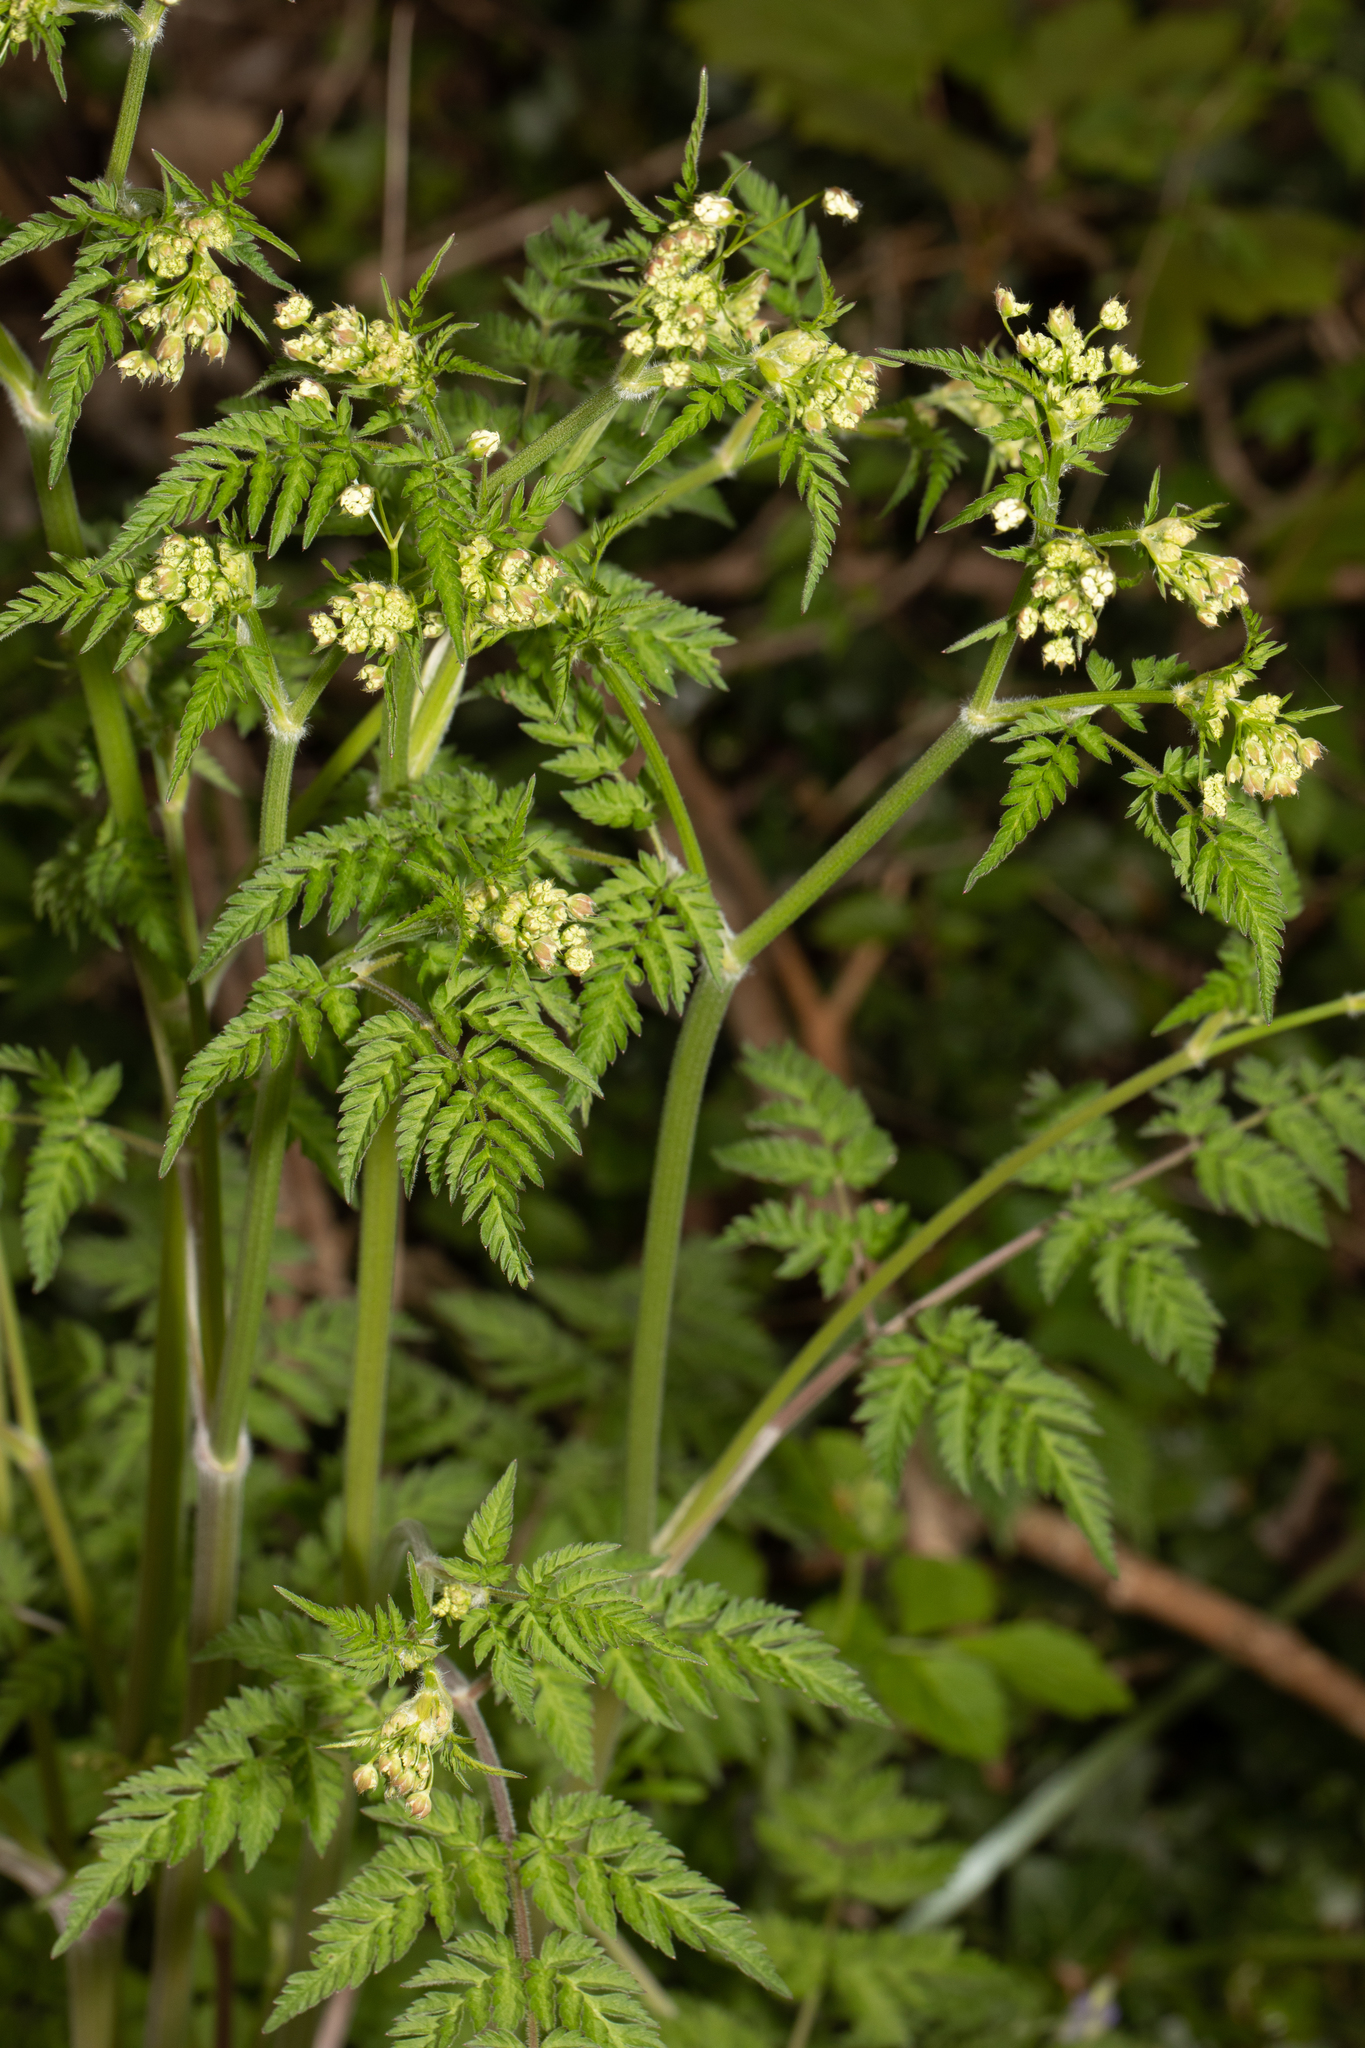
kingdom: Plantae
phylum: Tracheophyta
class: Magnoliopsida
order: Apiales
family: Apiaceae
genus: Anthriscus
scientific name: Anthriscus sylvestris
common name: Cow parsley
